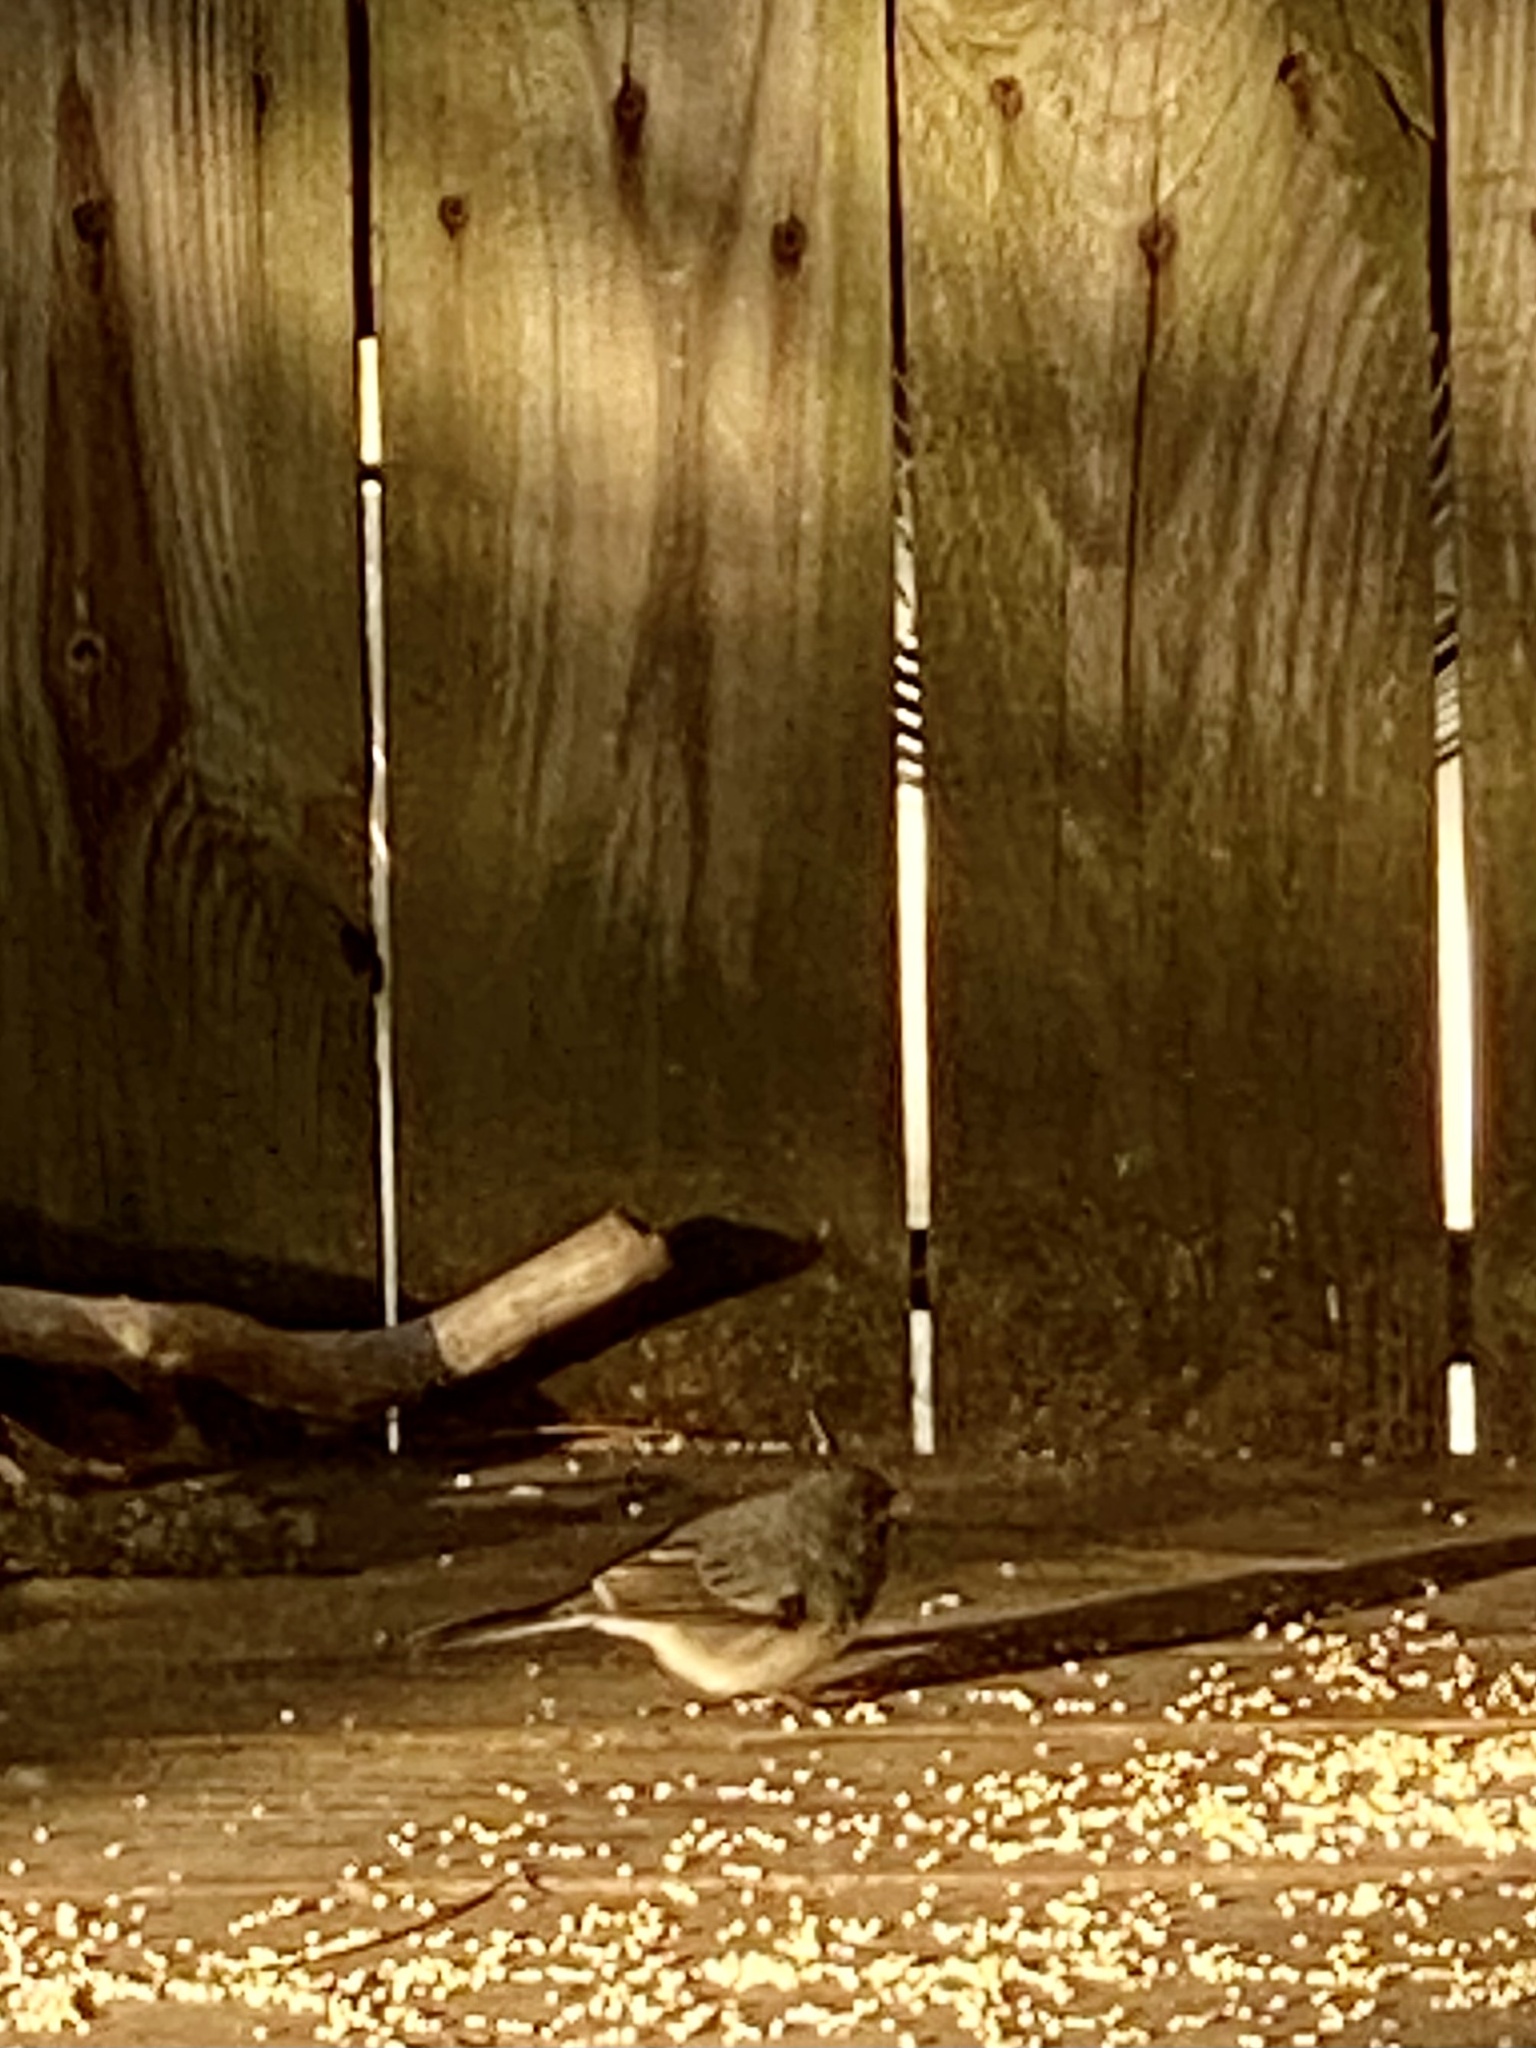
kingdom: Animalia
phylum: Chordata
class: Aves
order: Passeriformes
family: Passerellidae
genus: Junco
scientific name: Junco hyemalis
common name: Dark-eyed junco
